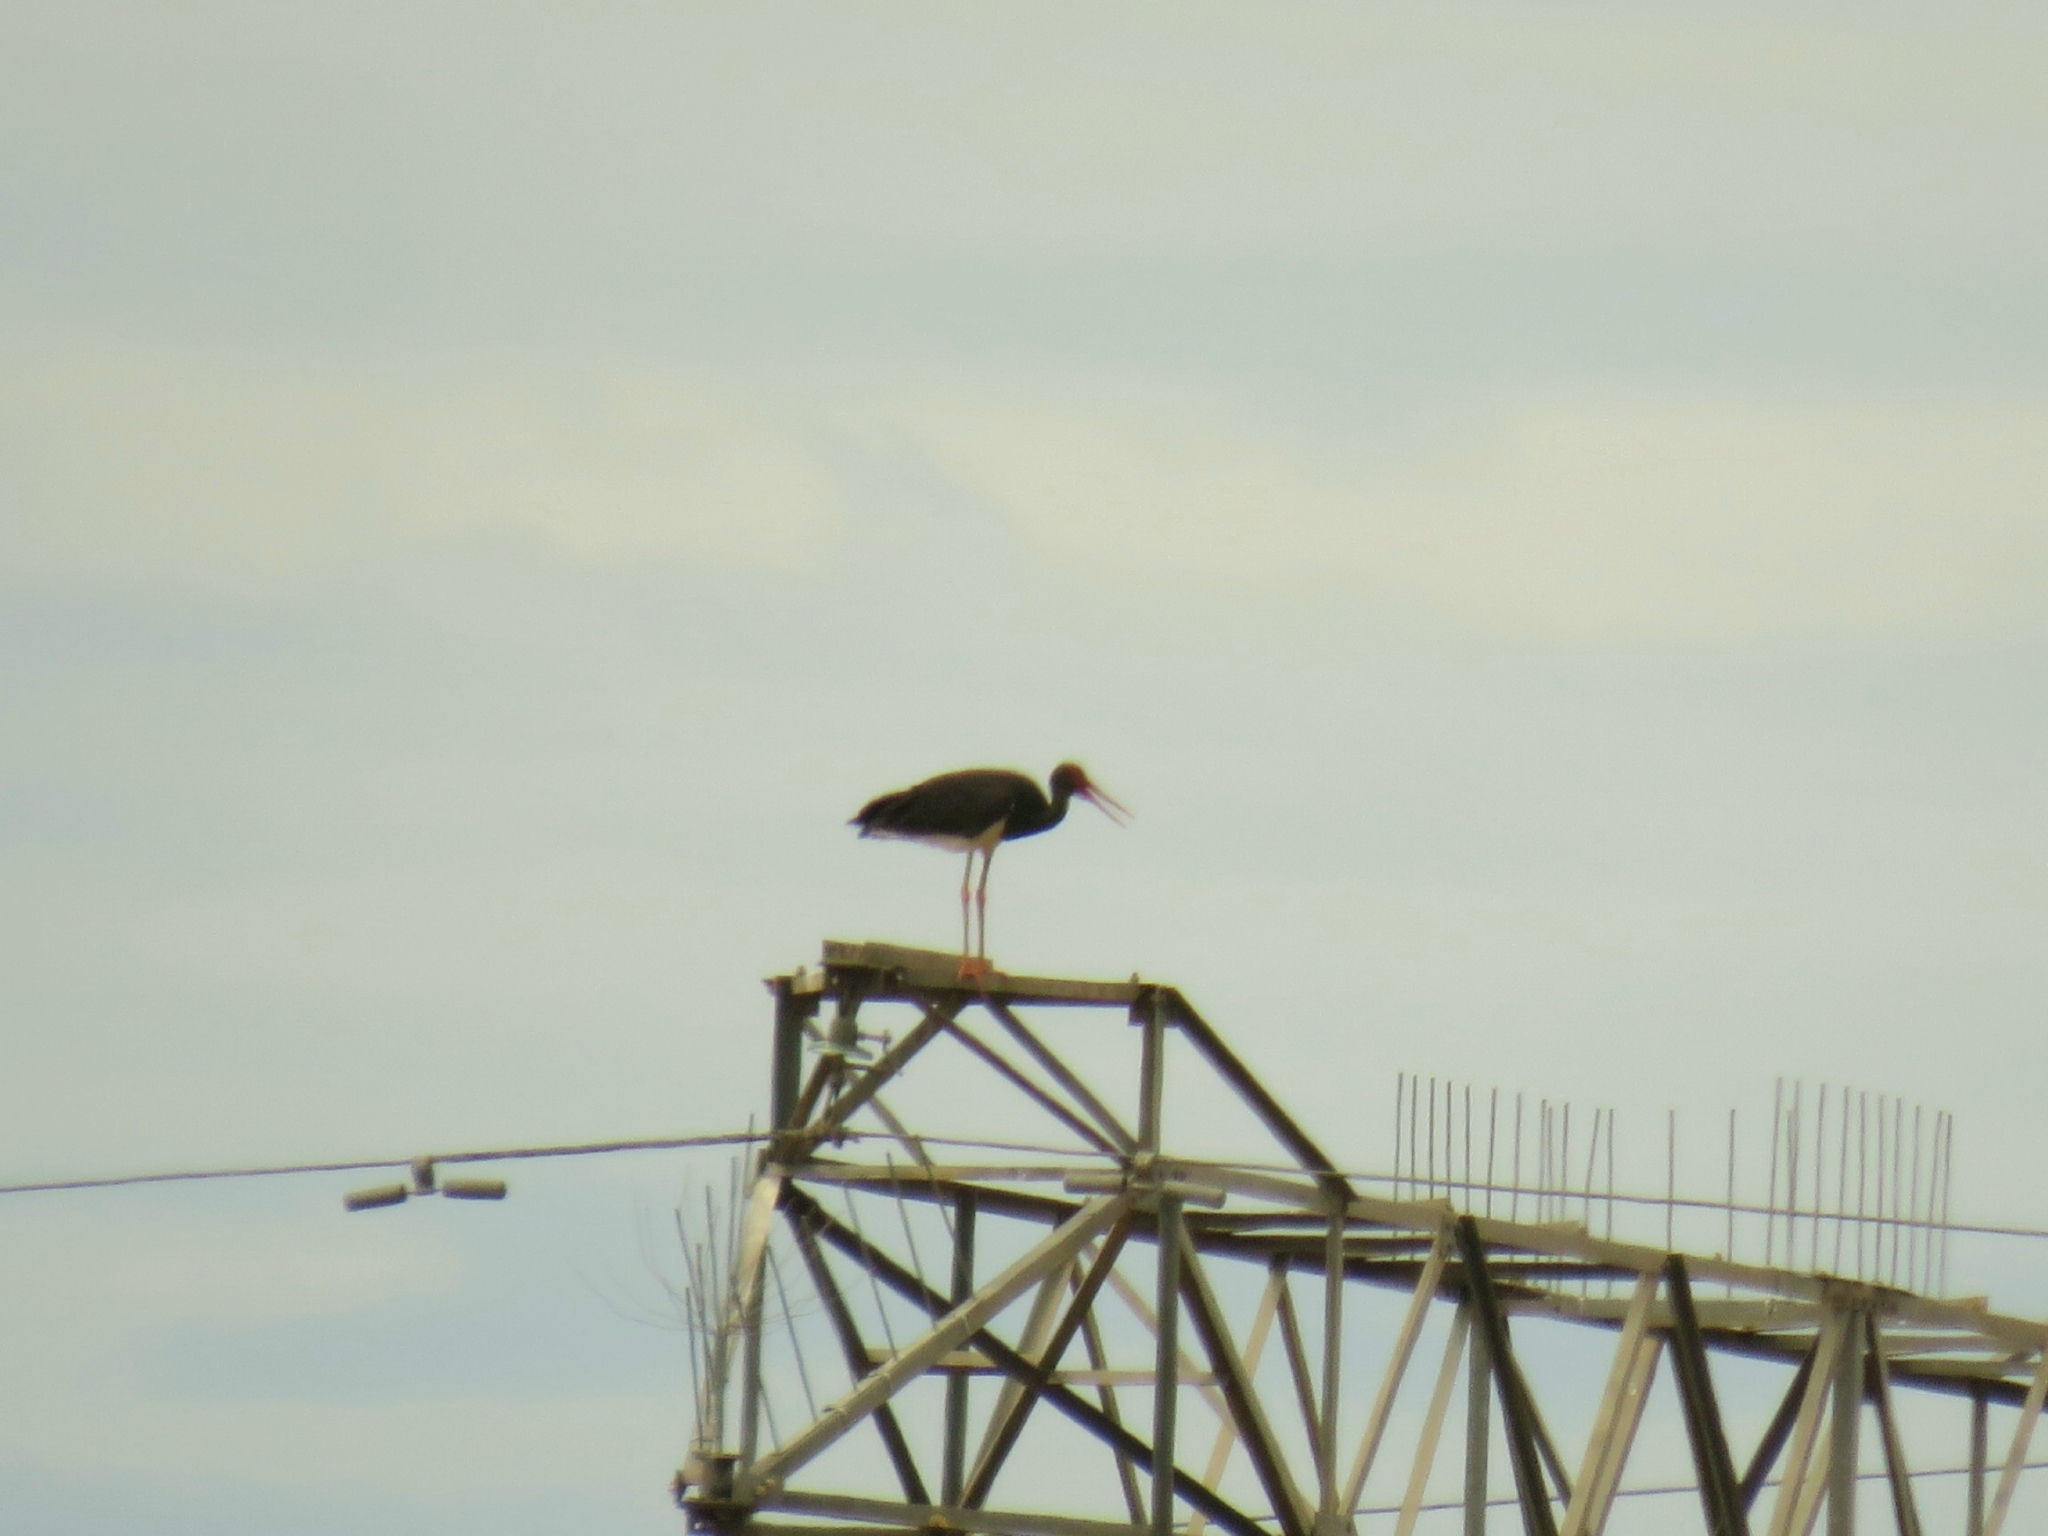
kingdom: Animalia
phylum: Chordata
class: Aves
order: Ciconiiformes
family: Ciconiidae
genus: Ciconia
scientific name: Ciconia nigra
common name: Black stork
